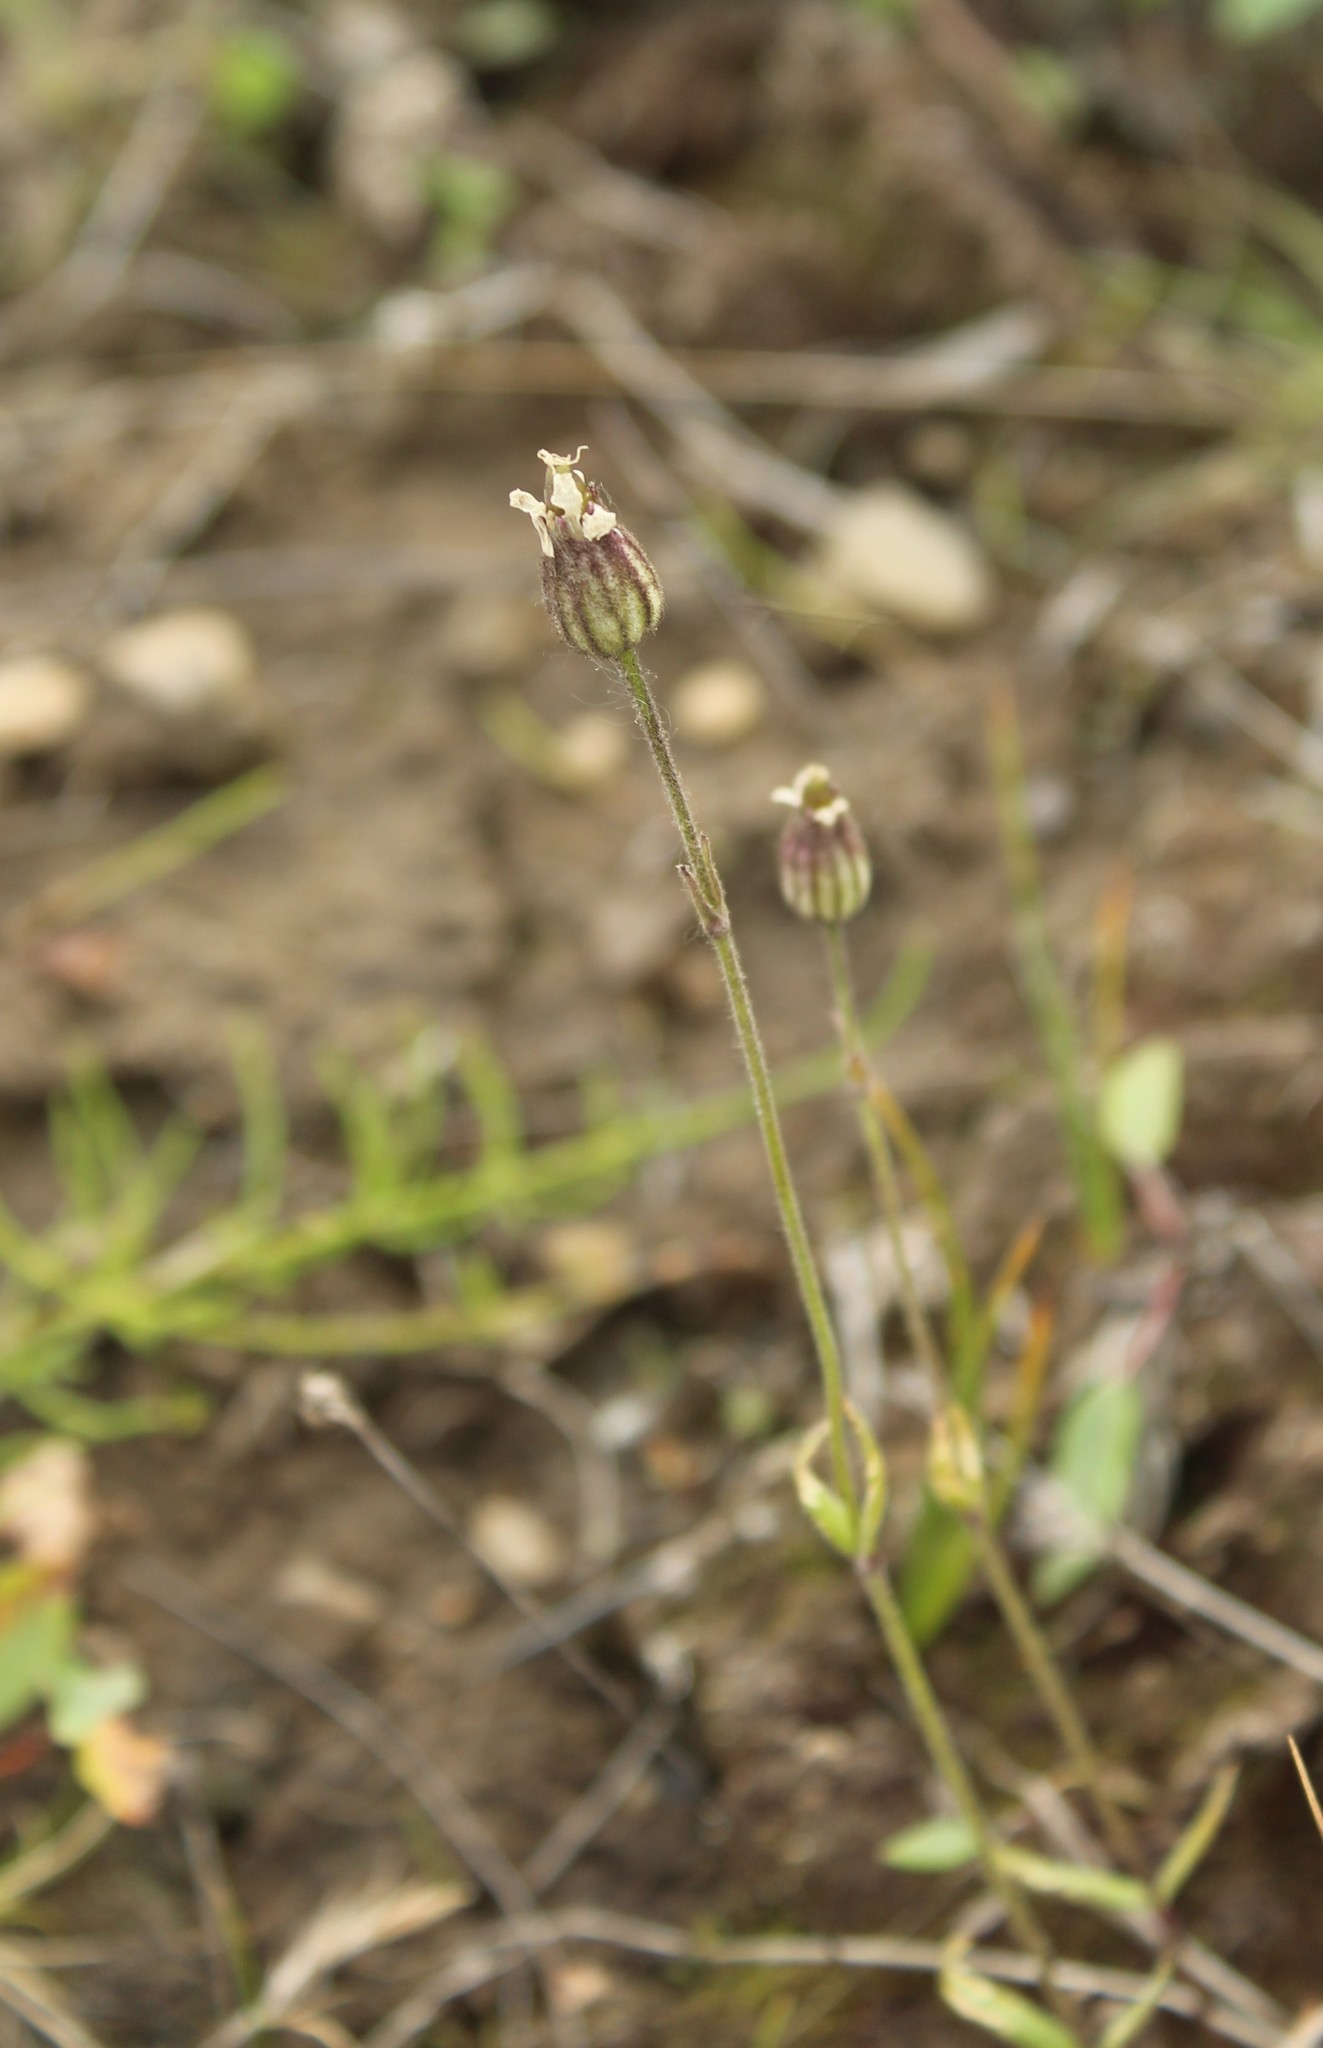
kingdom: Plantae
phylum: Tracheophyta
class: Magnoliopsida
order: Caryophyllales
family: Caryophyllaceae
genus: Silene
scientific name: Silene involucrata
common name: Greater arctic campion
